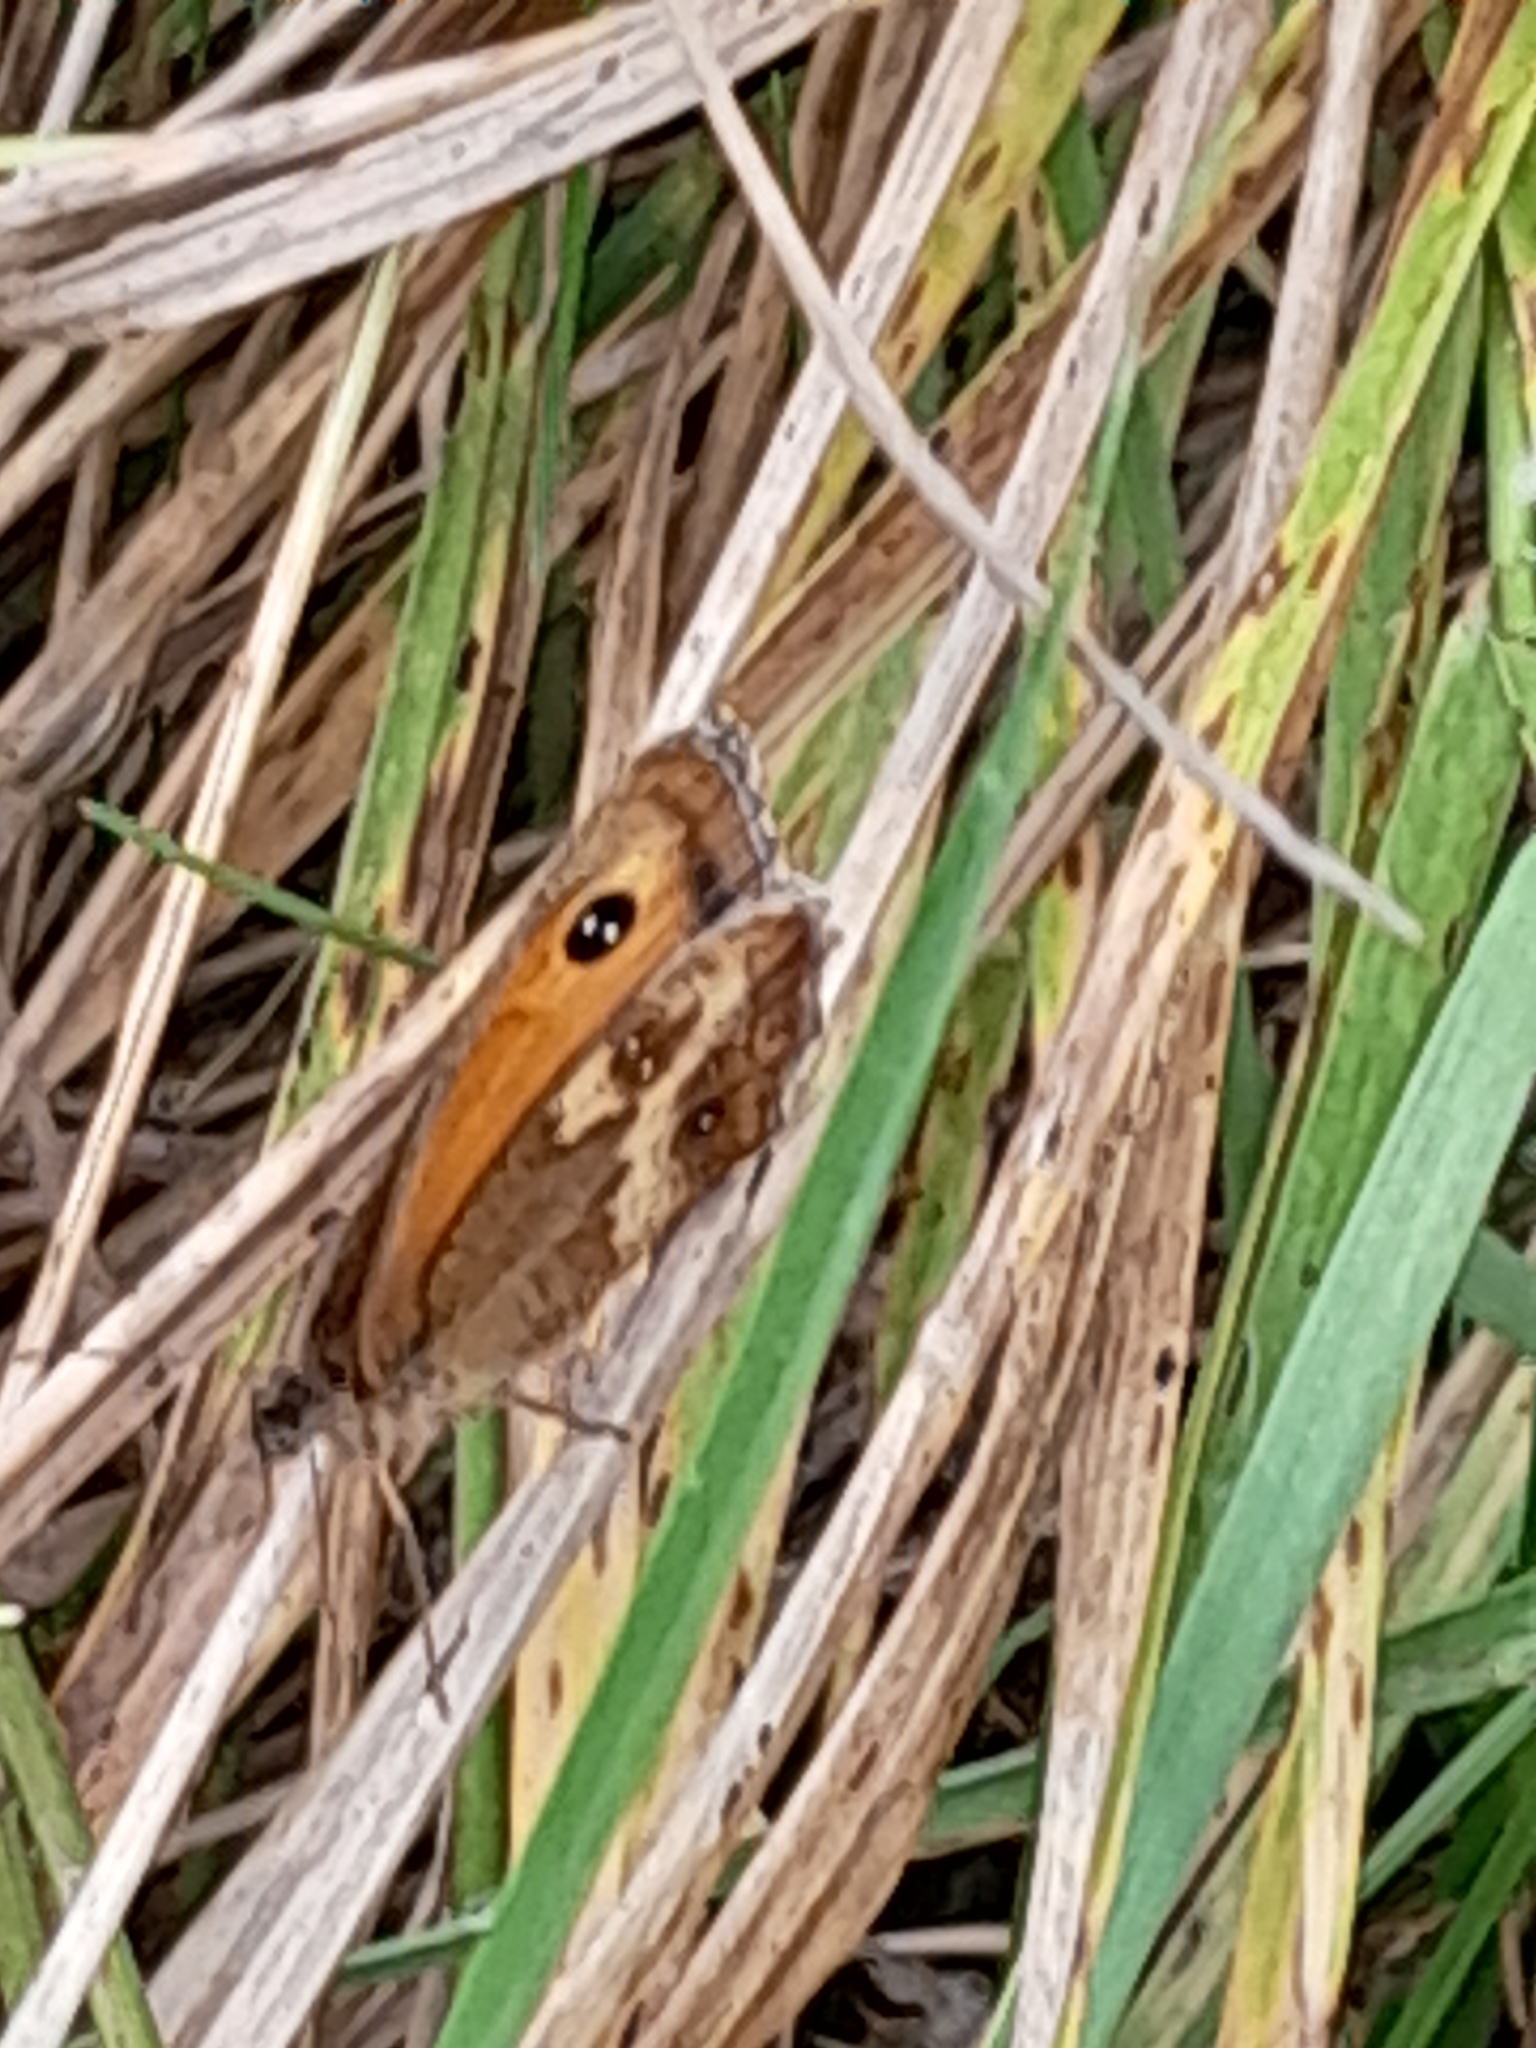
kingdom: Animalia
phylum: Arthropoda
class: Insecta
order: Lepidoptera
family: Nymphalidae
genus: Pyronia
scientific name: Pyronia tithonus
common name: Gatekeeper
